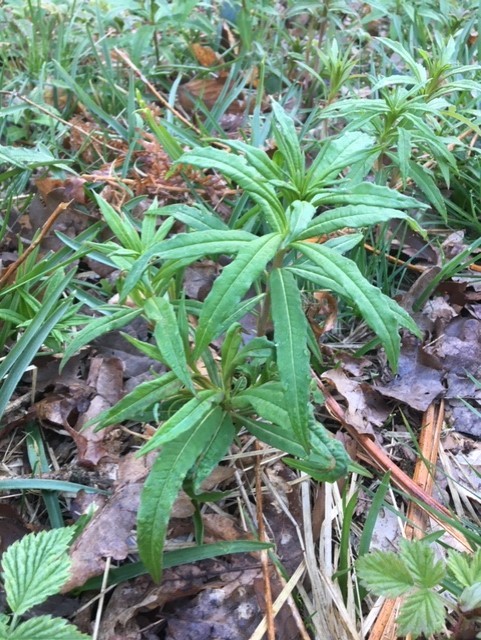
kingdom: Plantae
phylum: Tracheophyta
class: Magnoliopsida
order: Myrtales
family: Onagraceae
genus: Chamaenerion
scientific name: Chamaenerion angustifolium
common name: Fireweed
